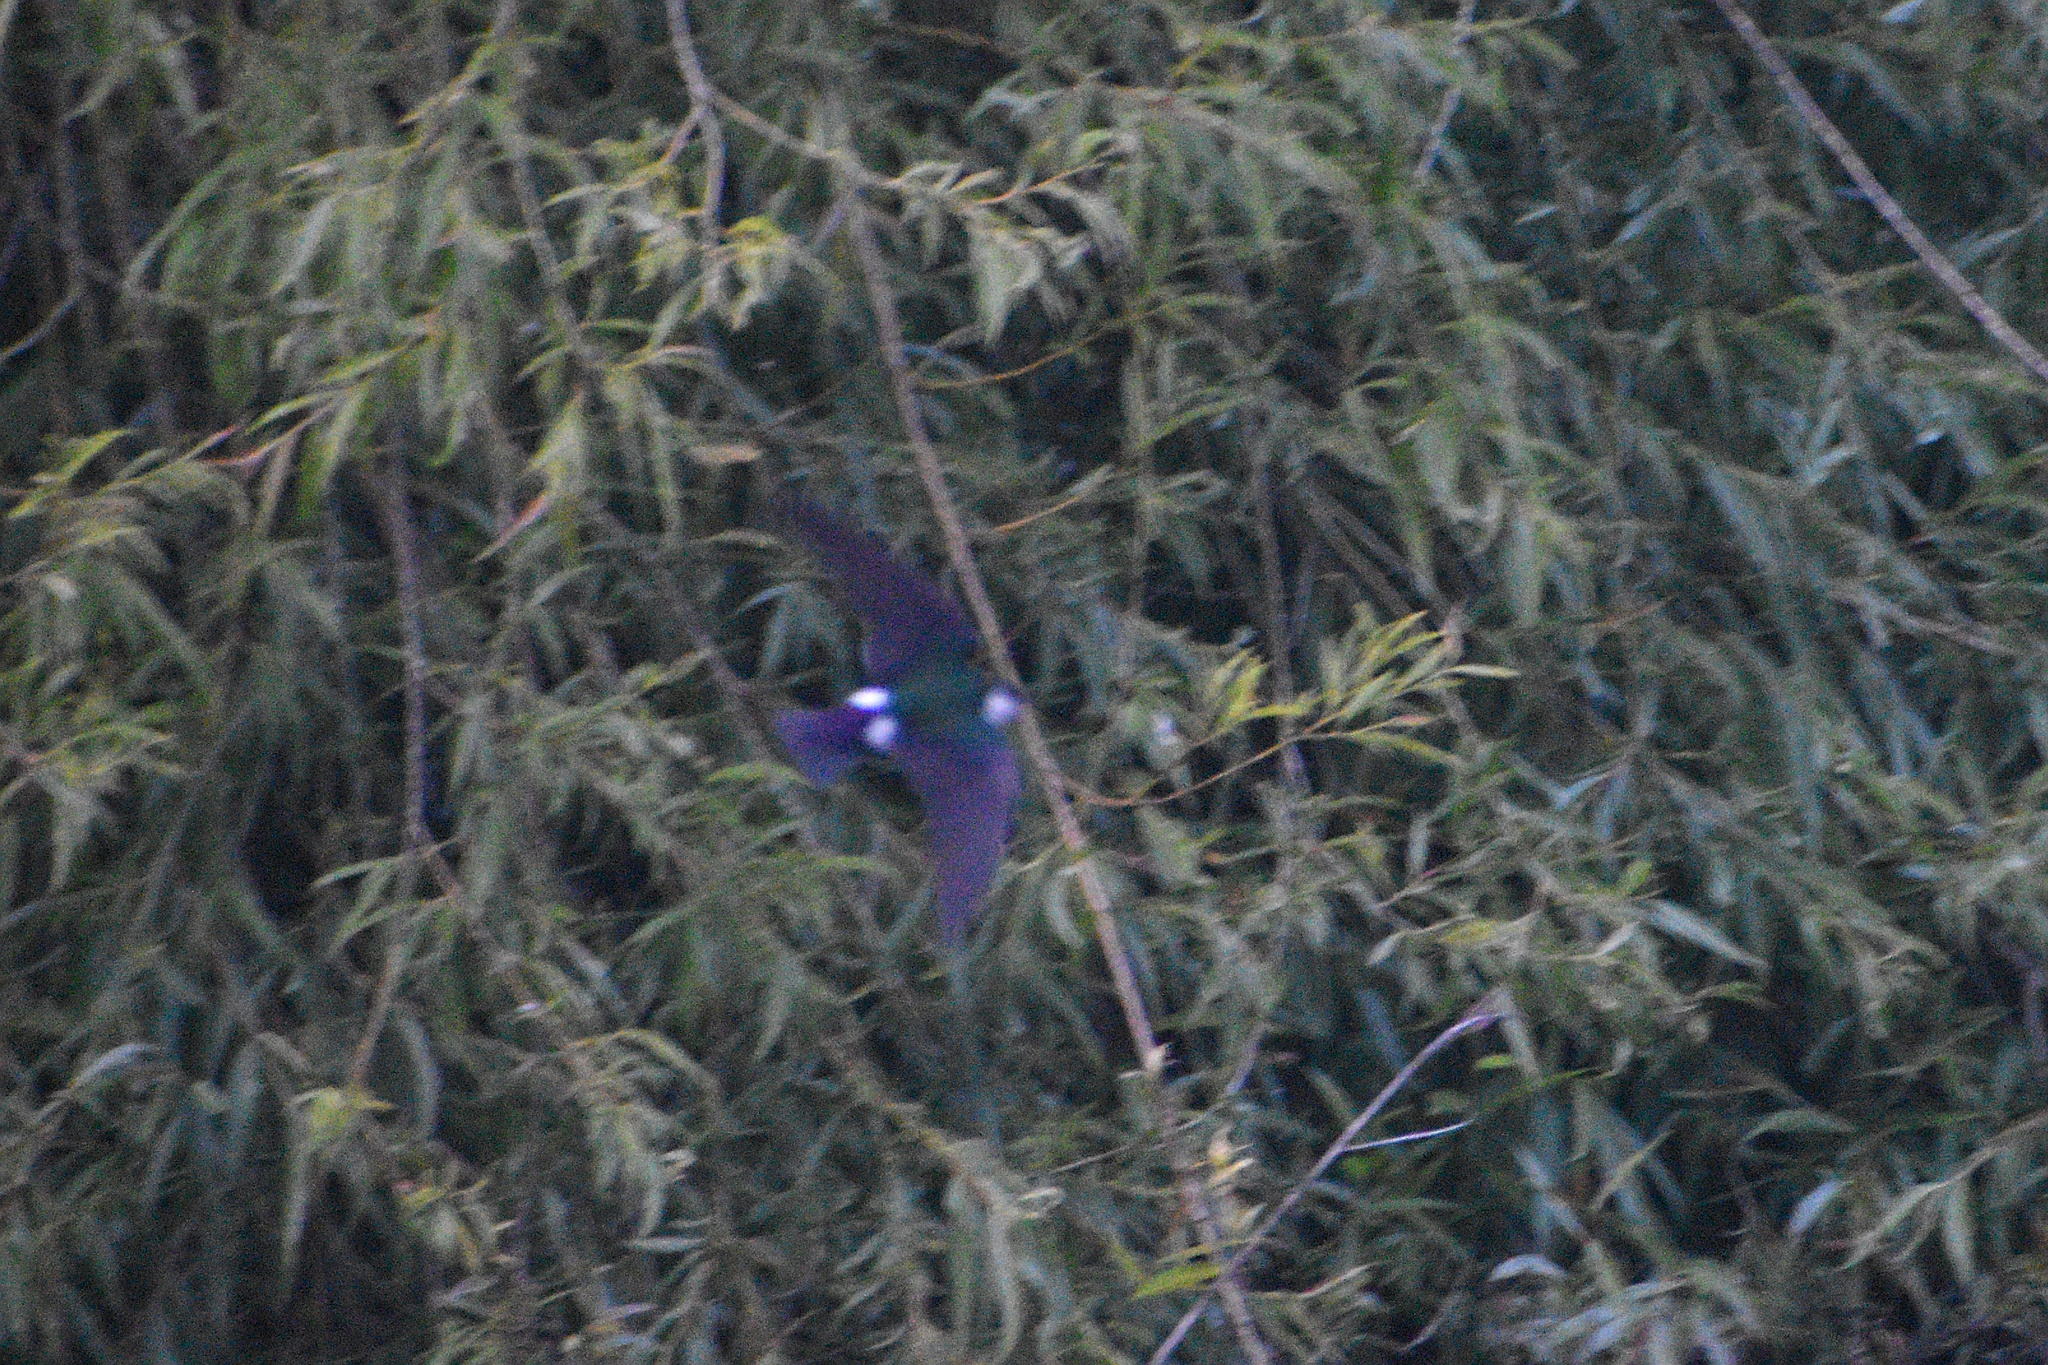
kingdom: Animalia
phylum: Chordata
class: Aves
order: Passeriformes
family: Hirundinidae
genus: Tachycineta
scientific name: Tachycineta thalassina
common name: Violet-green swallow
